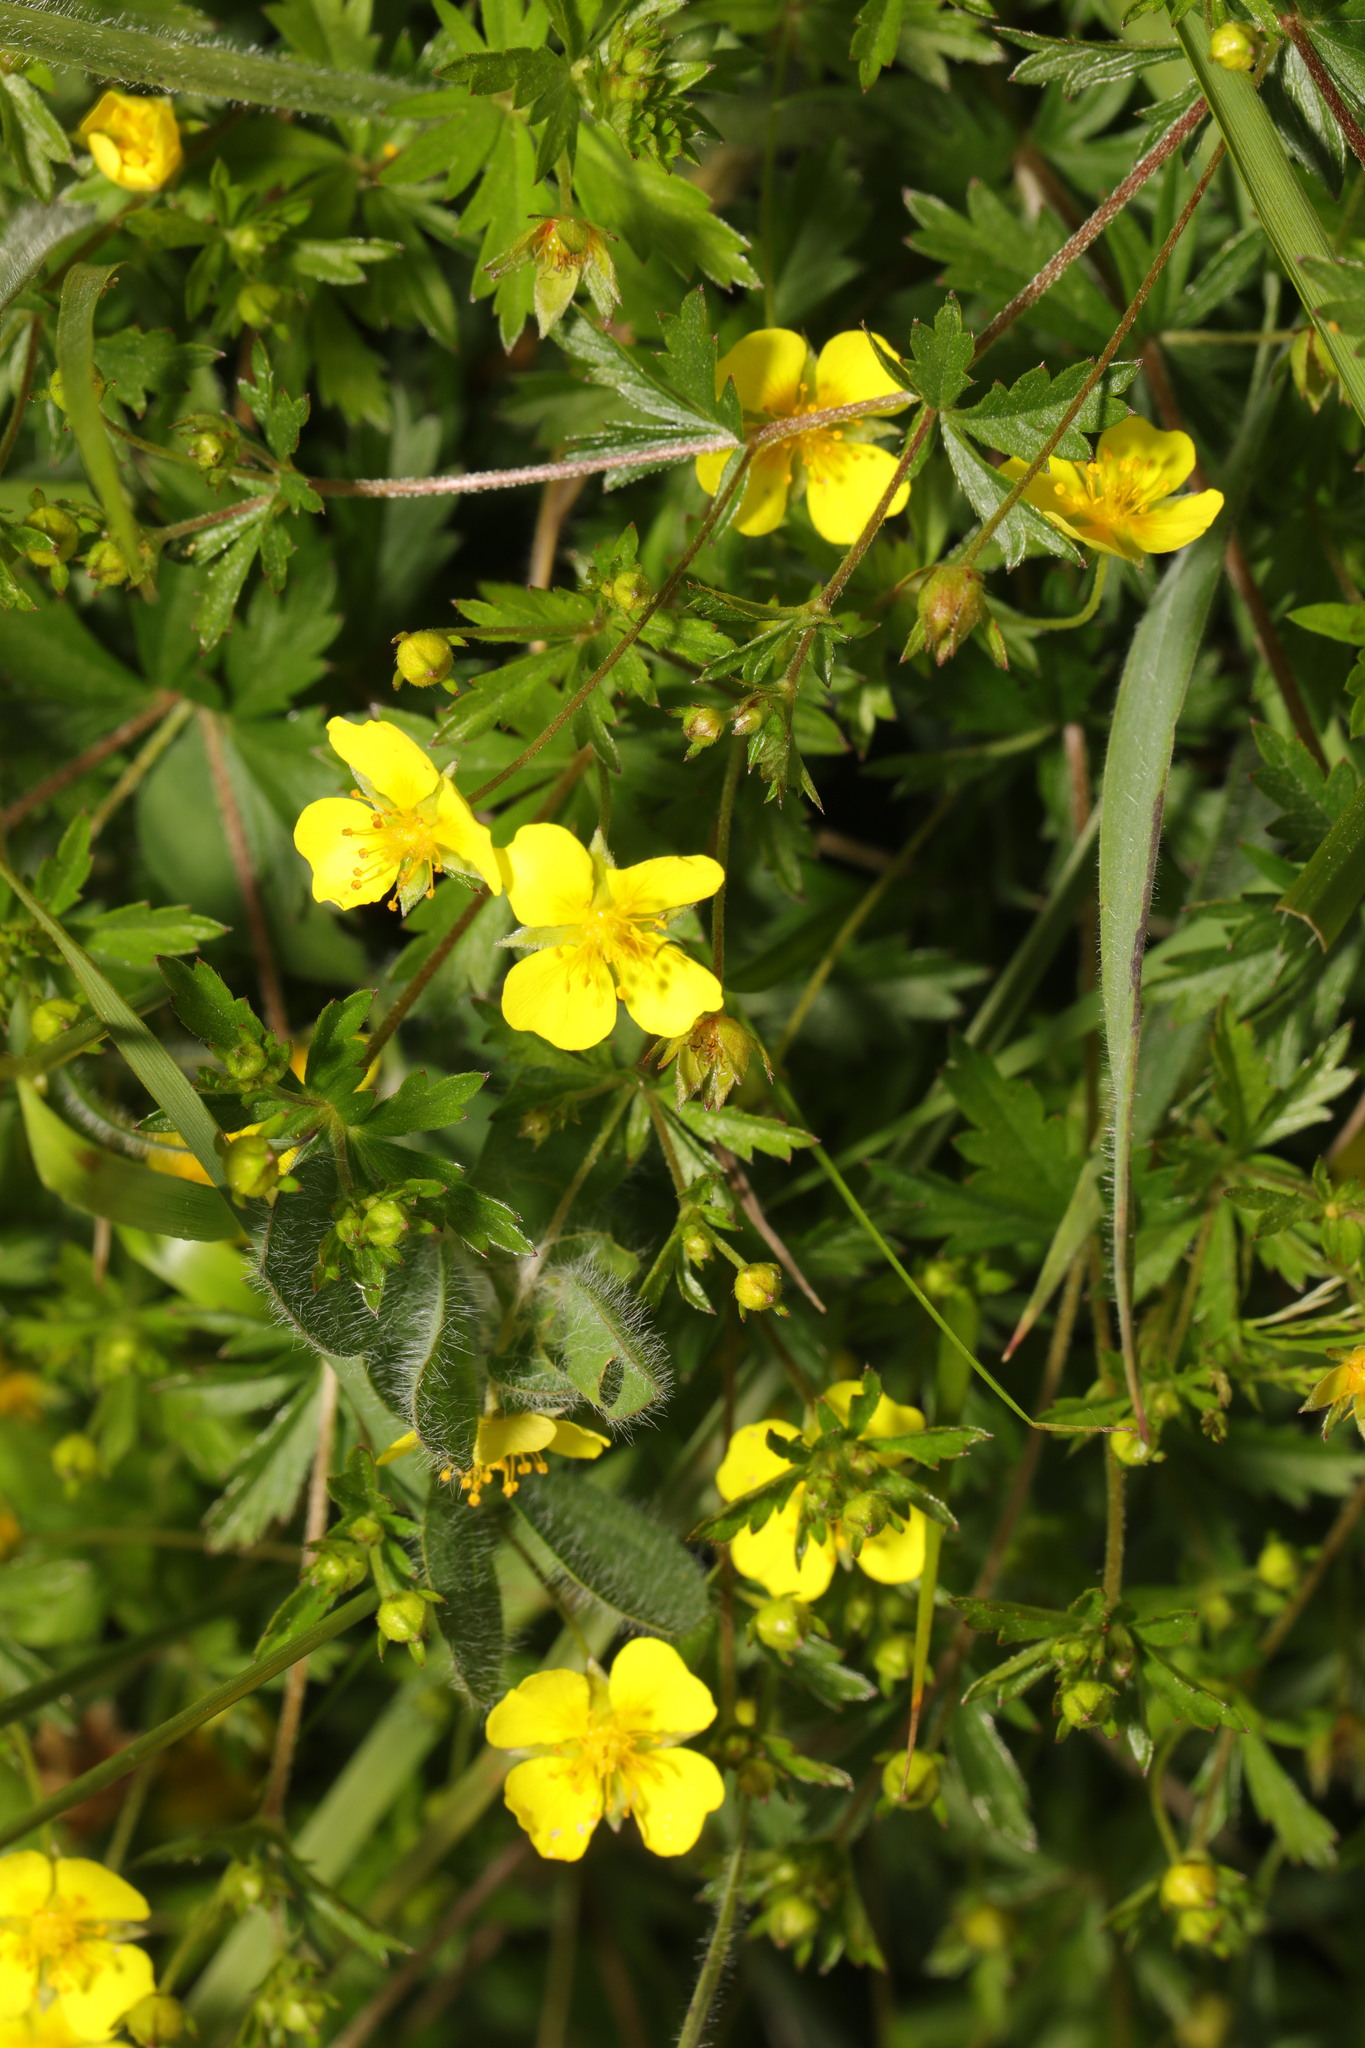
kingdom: Plantae
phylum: Tracheophyta
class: Magnoliopsida
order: Rosales
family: Rosaceae
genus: Potentilla
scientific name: Potentilla erecta
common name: Tormentil
